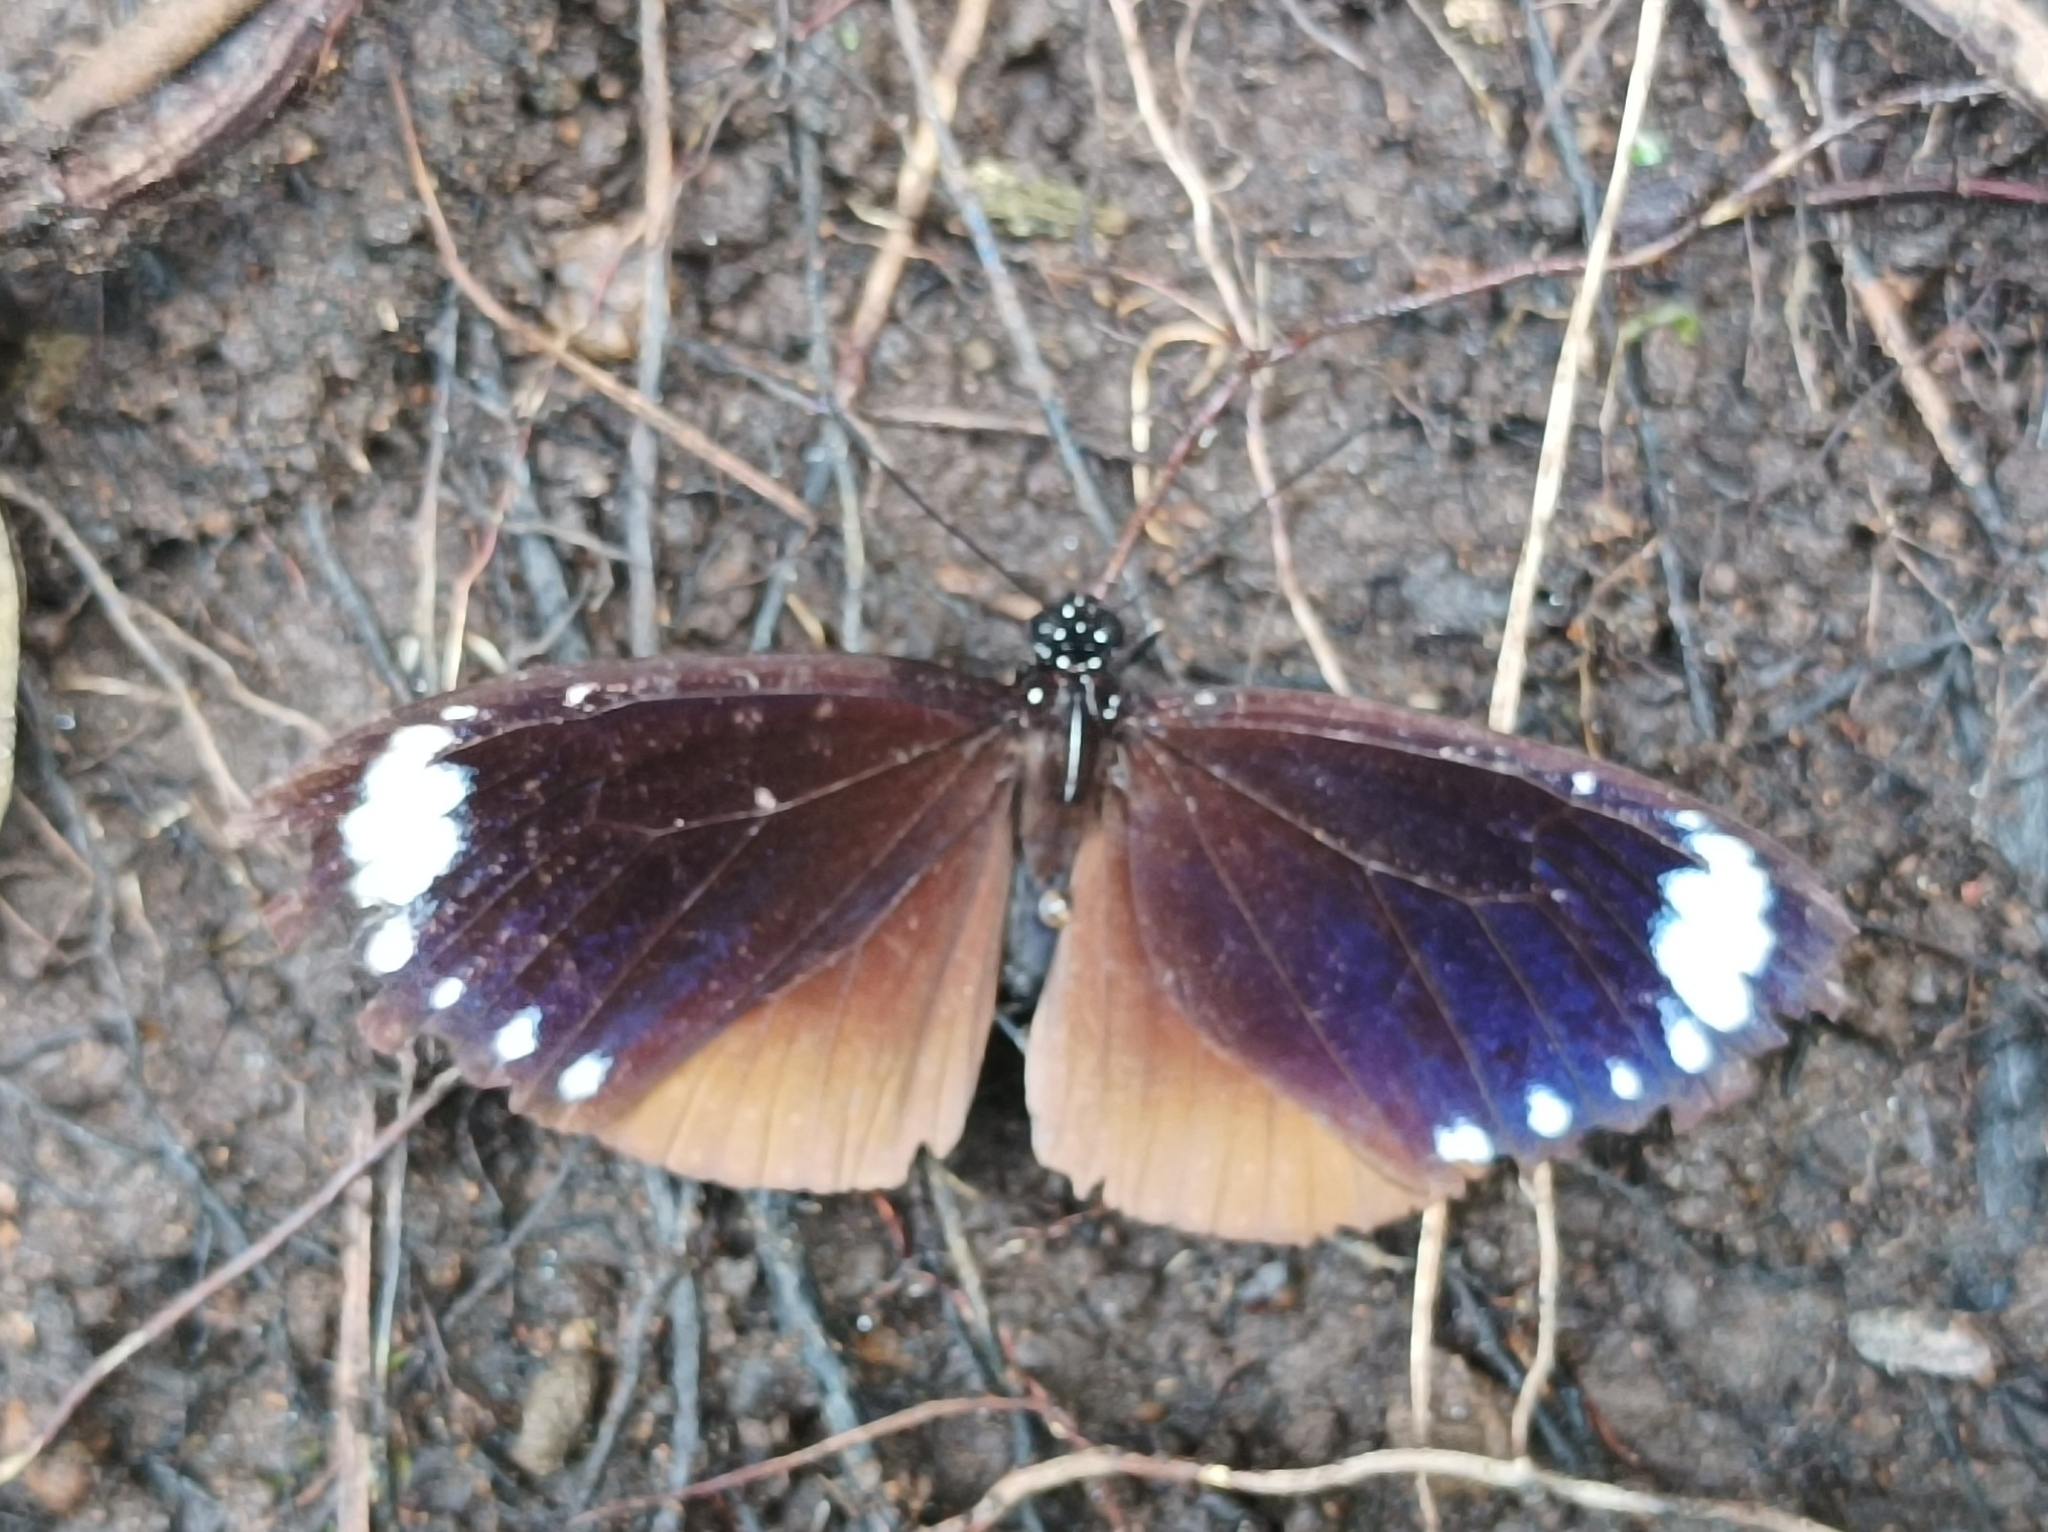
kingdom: Animalia
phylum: Arthropoda
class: Insecta
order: Lepidoptera
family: Nymphalidae
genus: Euploea
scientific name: Euploea tulliolus
